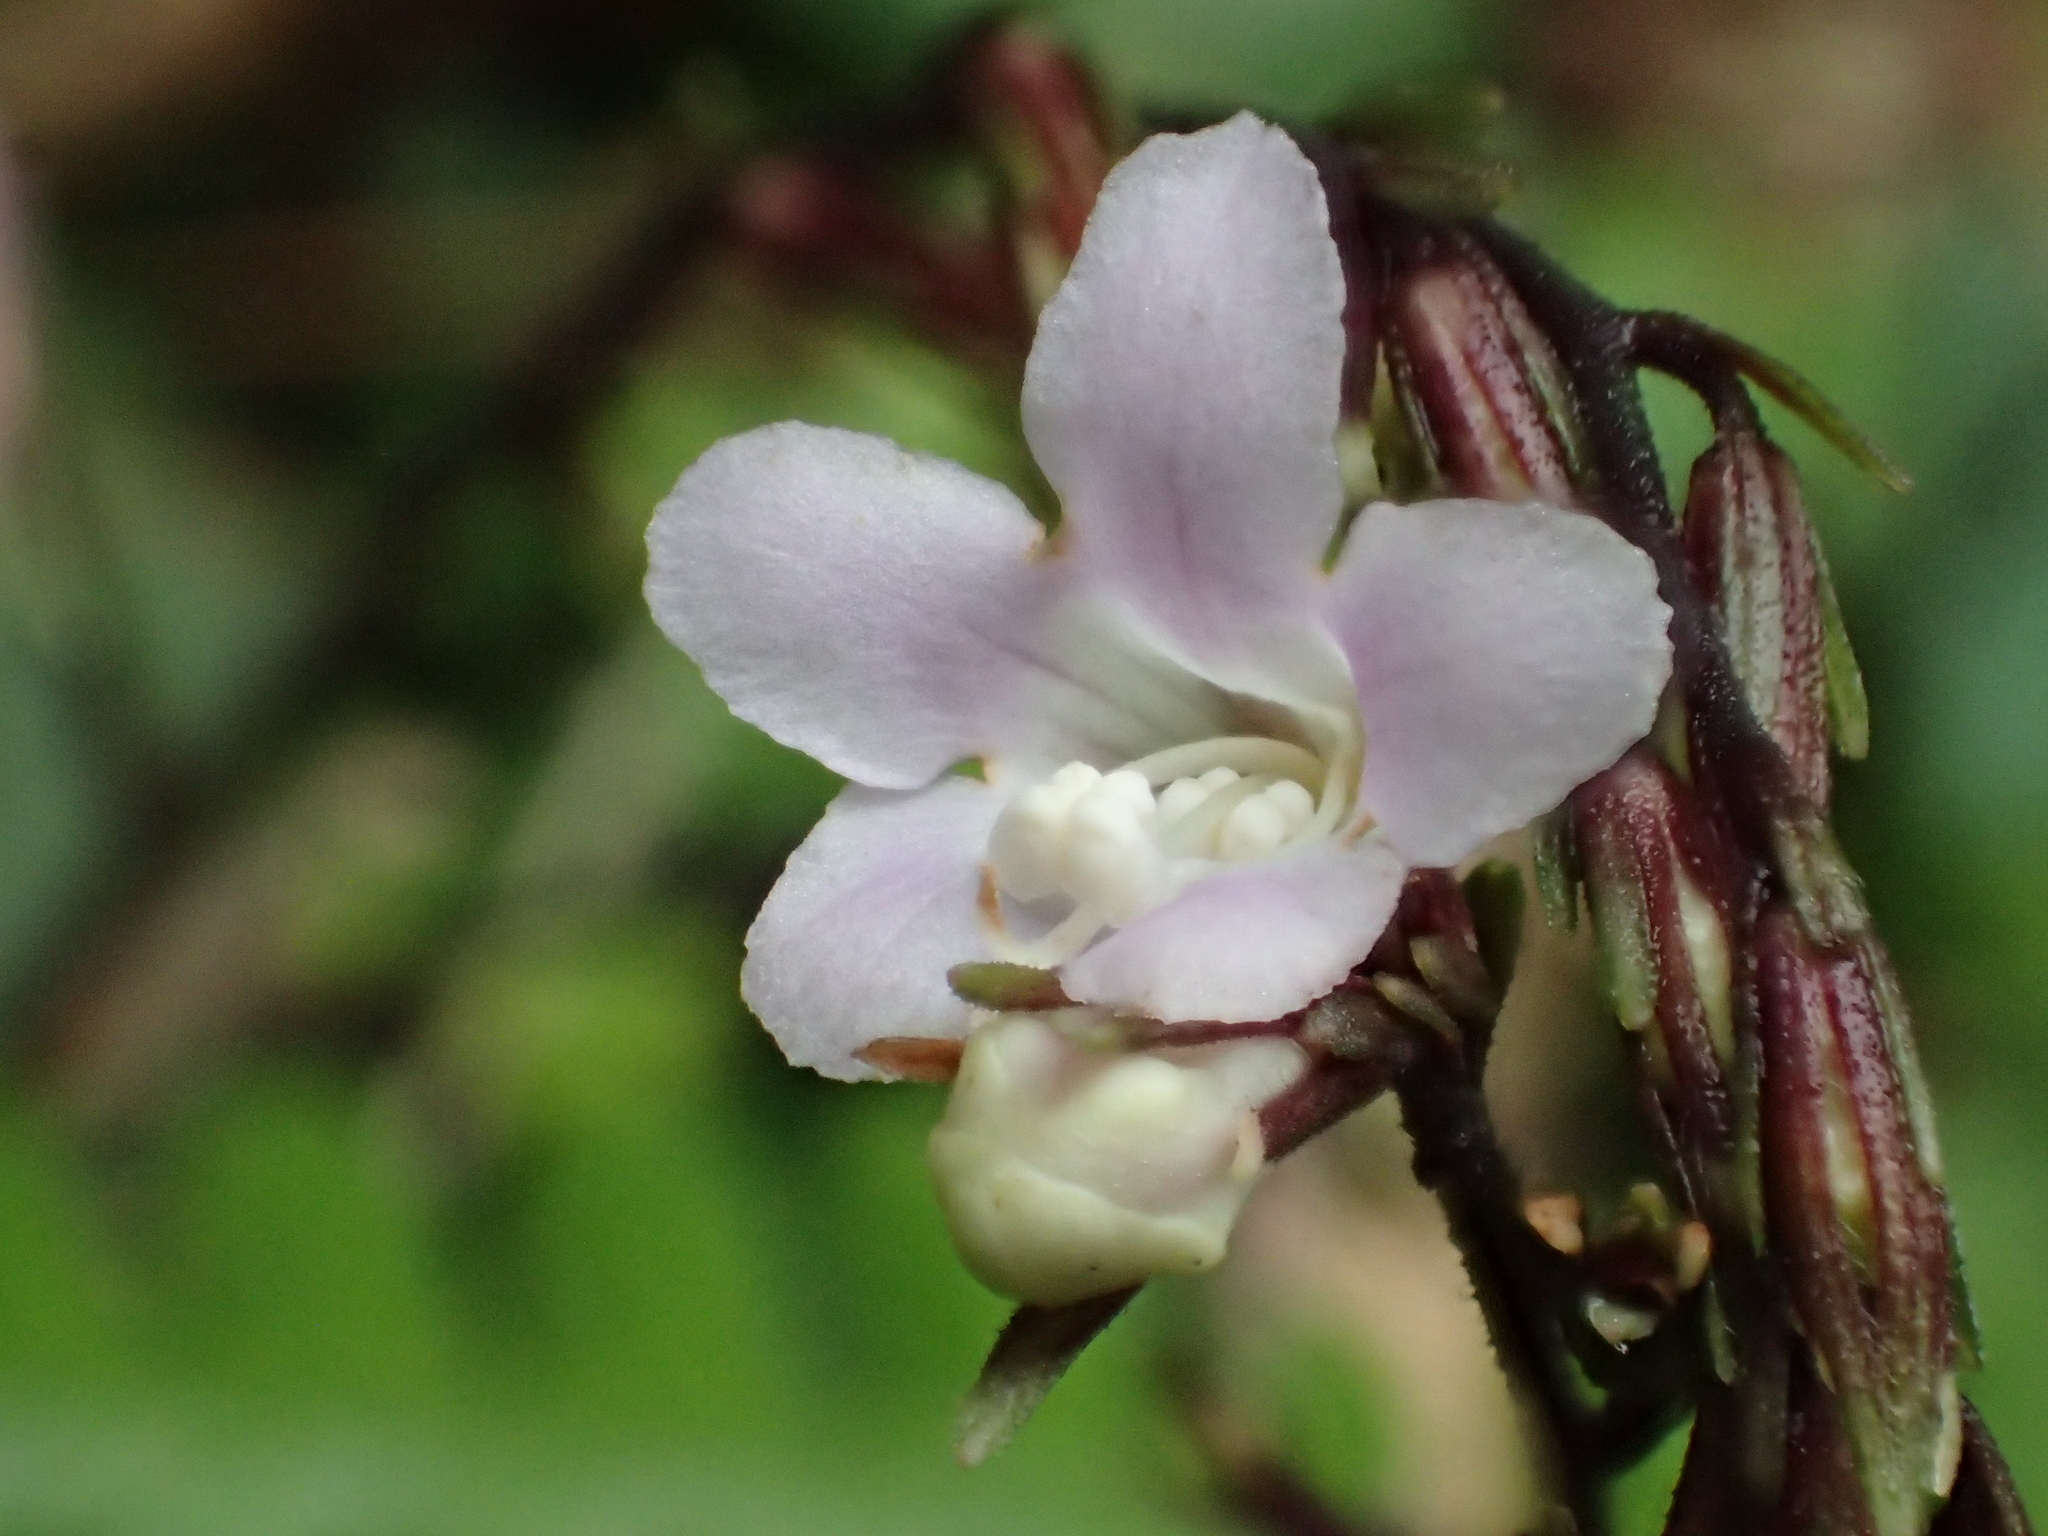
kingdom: Plantae
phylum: Tracheophyta
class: Magnoliopsida
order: Lamiales
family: Acanthaceae
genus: Staurogyne
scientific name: Staurogyne concinnula
